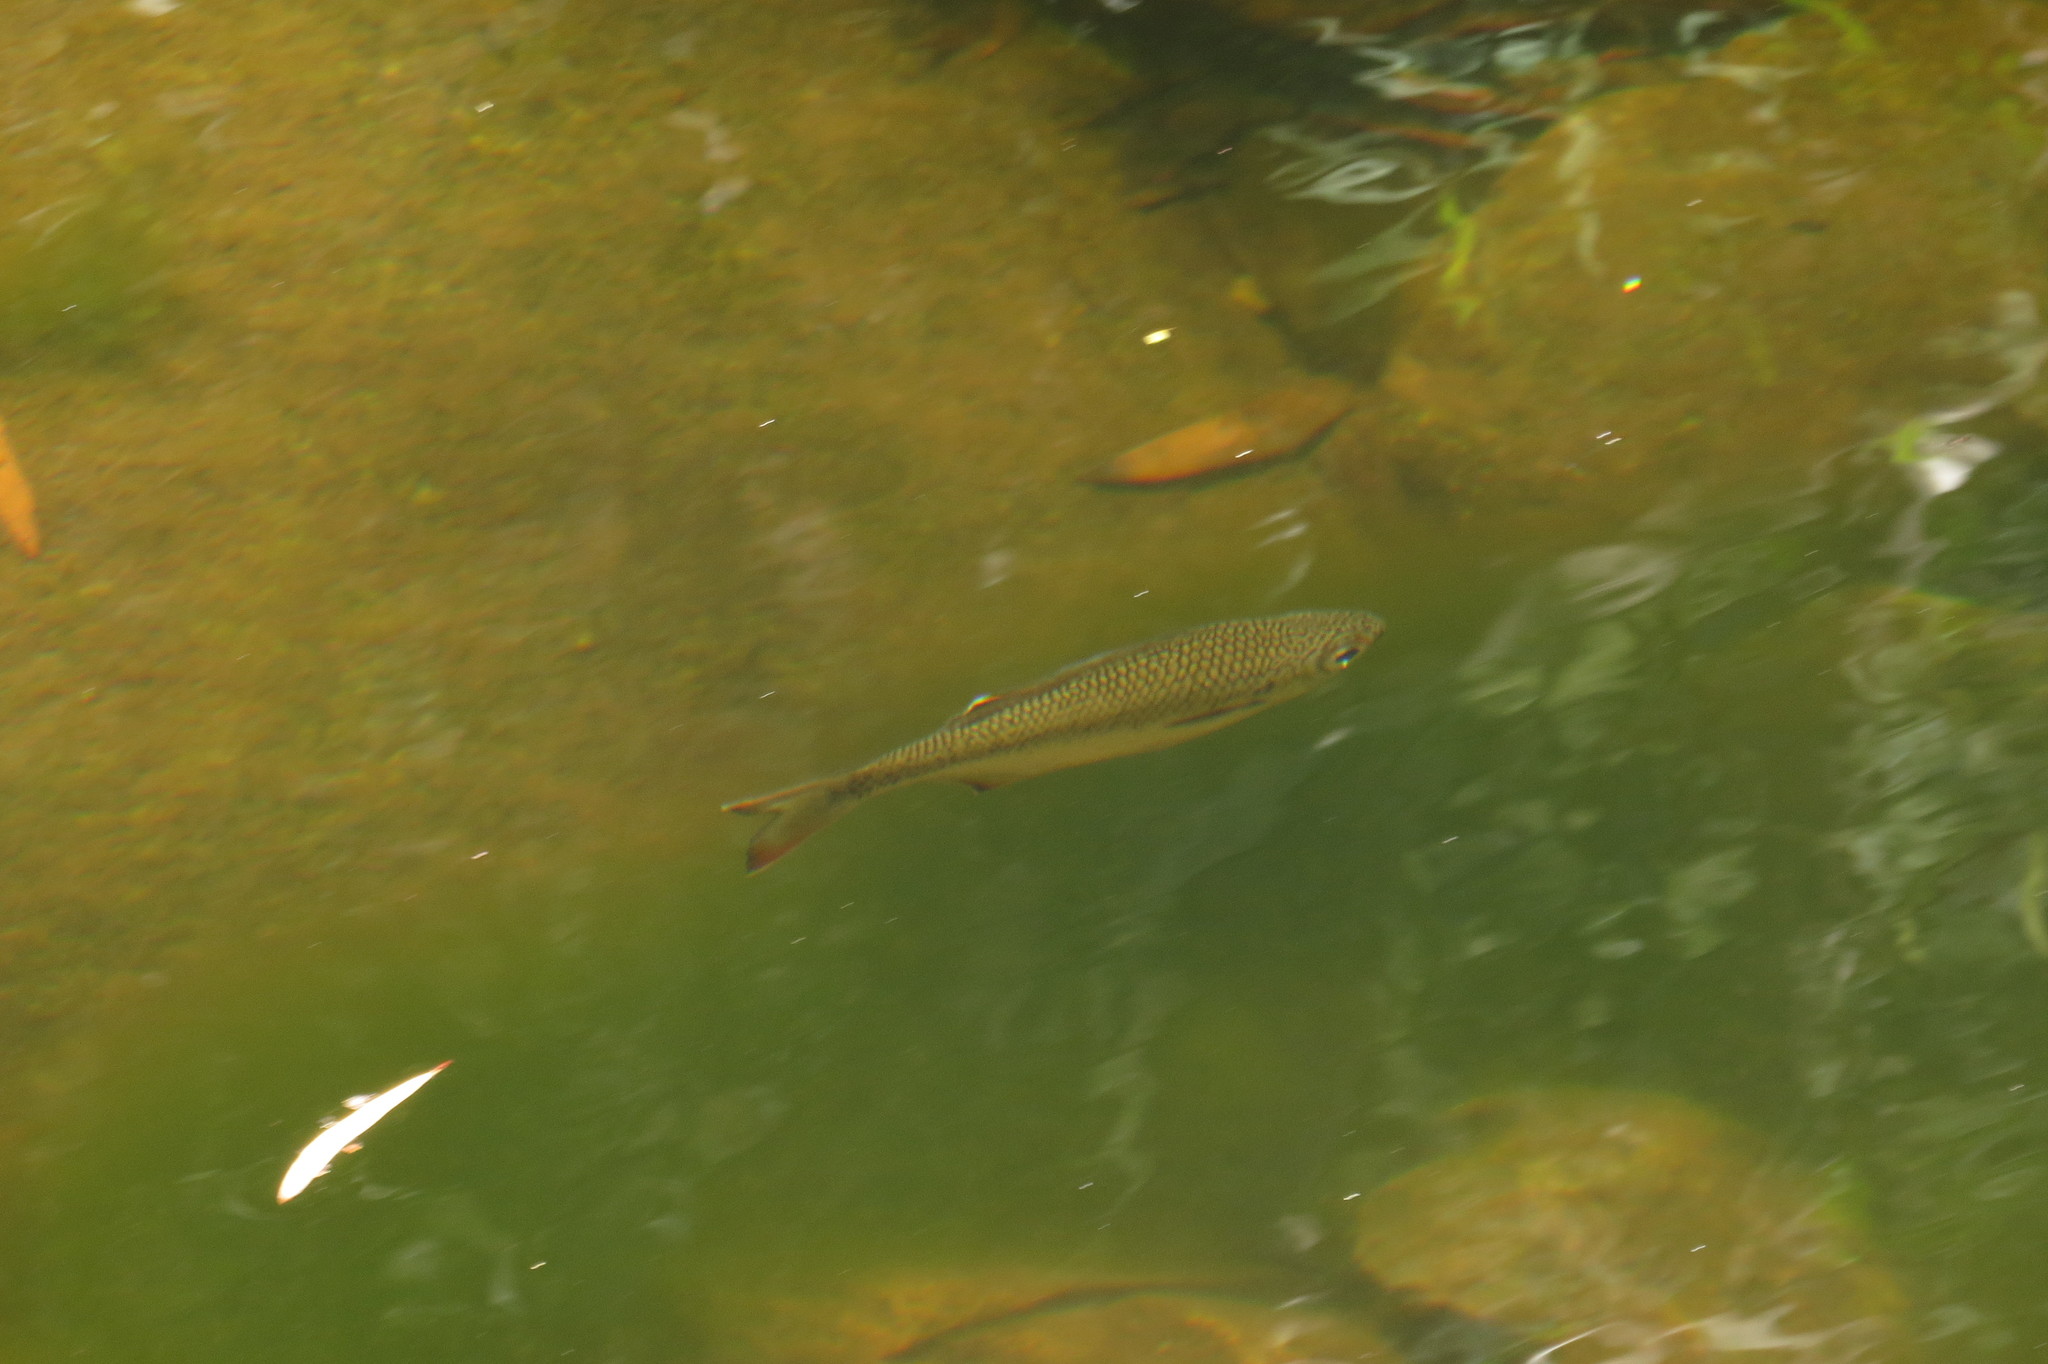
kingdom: Animalia
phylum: Chordata
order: Perciformes
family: Kuhliidae
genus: Kuhlia
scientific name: Kuhlia marginata
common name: Spotted flagtail
